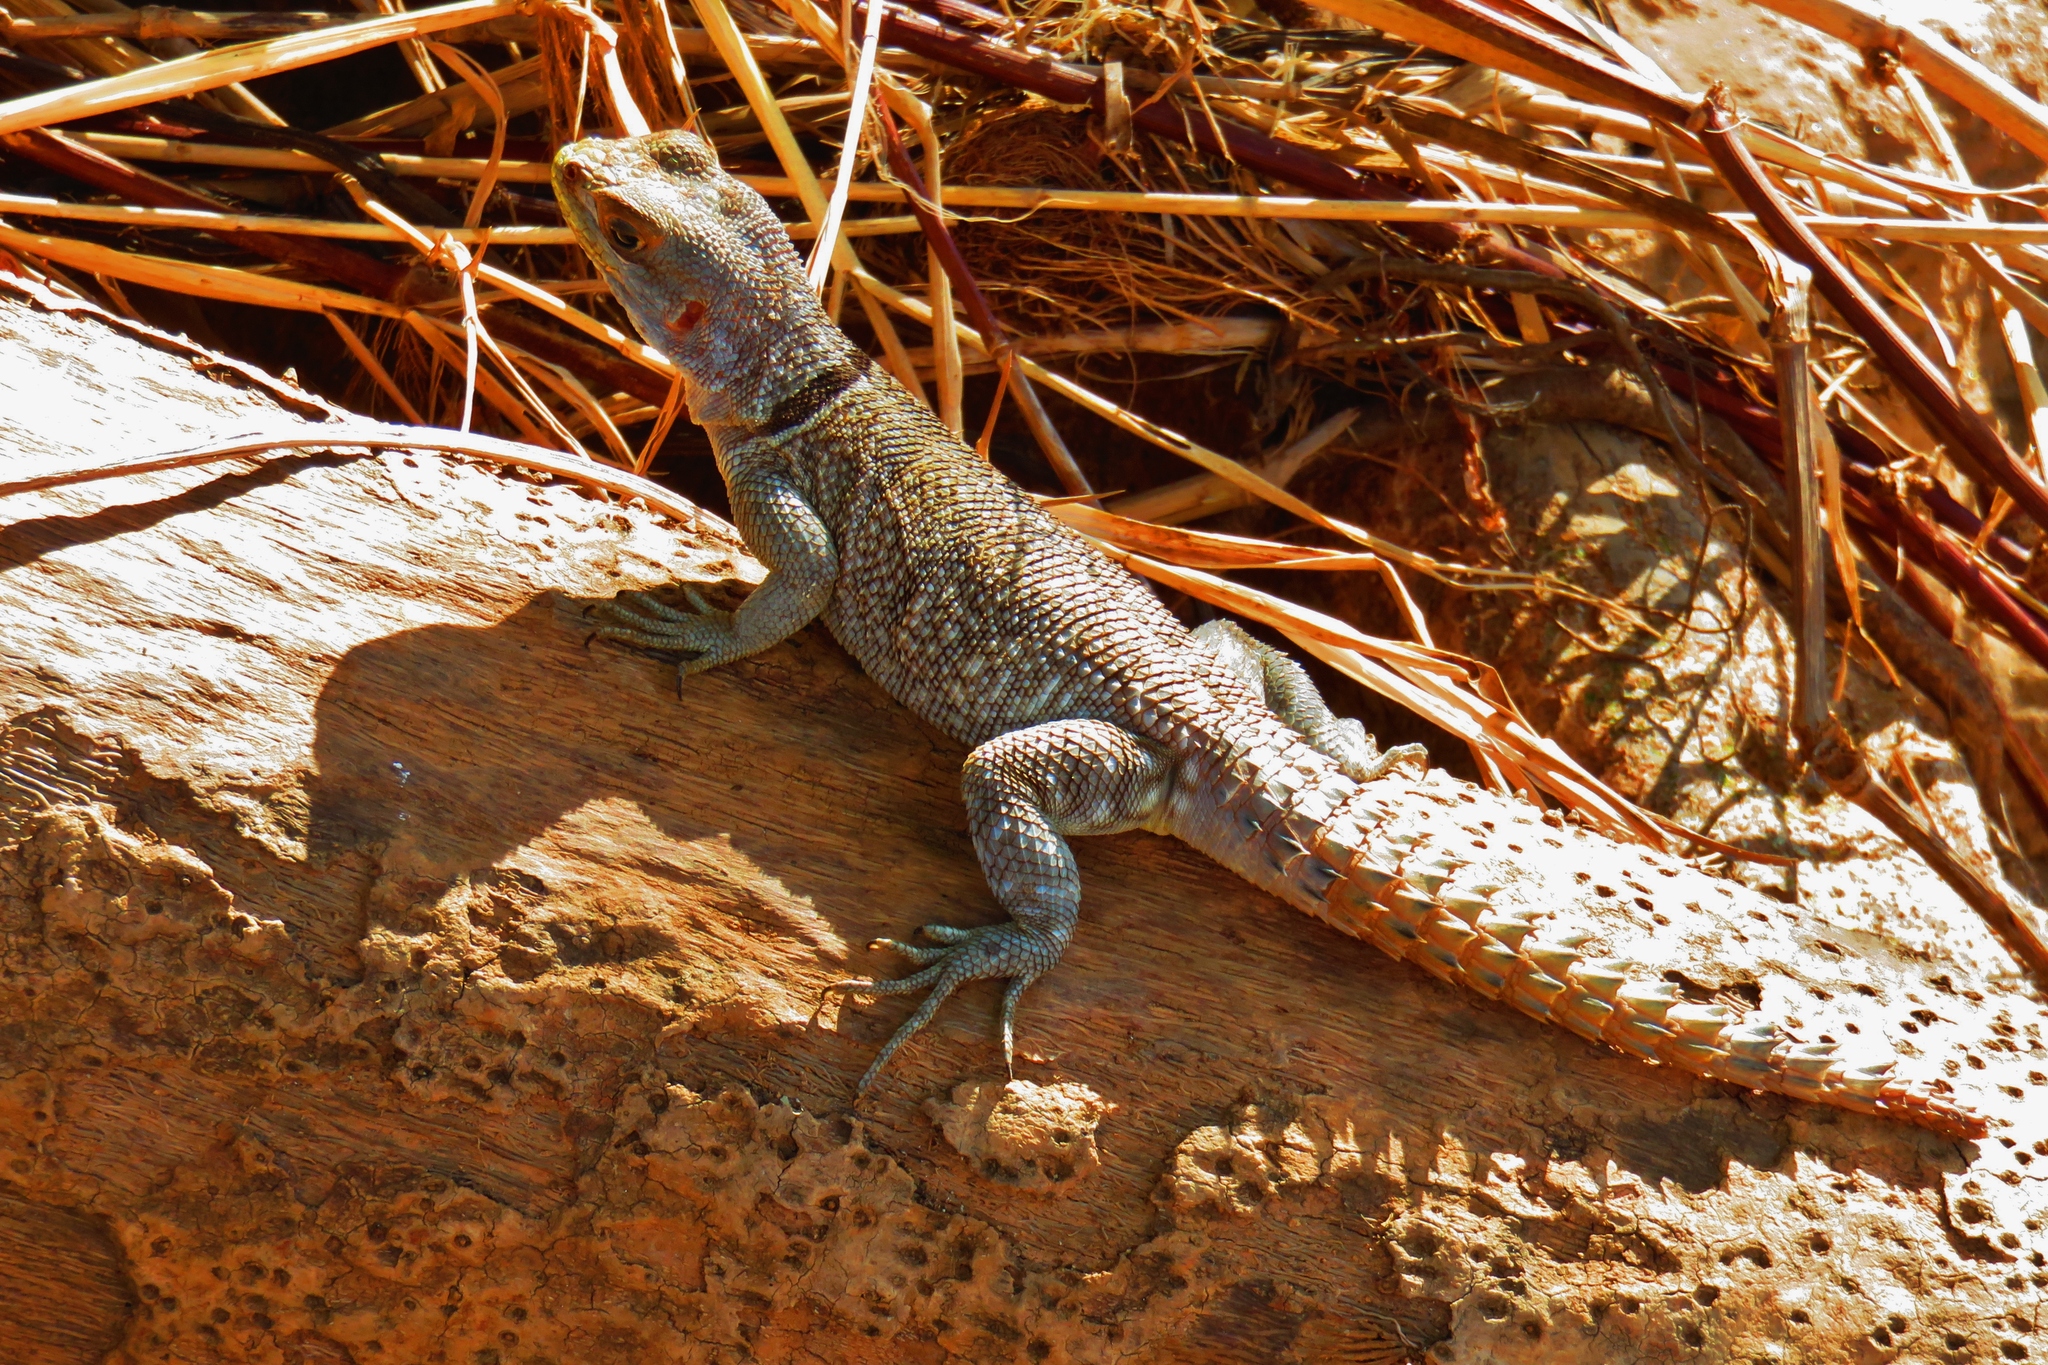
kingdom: Animalia
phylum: Chordata
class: Squamata
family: Opluridae
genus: Oplurus
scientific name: Oplurus cuvieri
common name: Cuvier's madagascar swift
